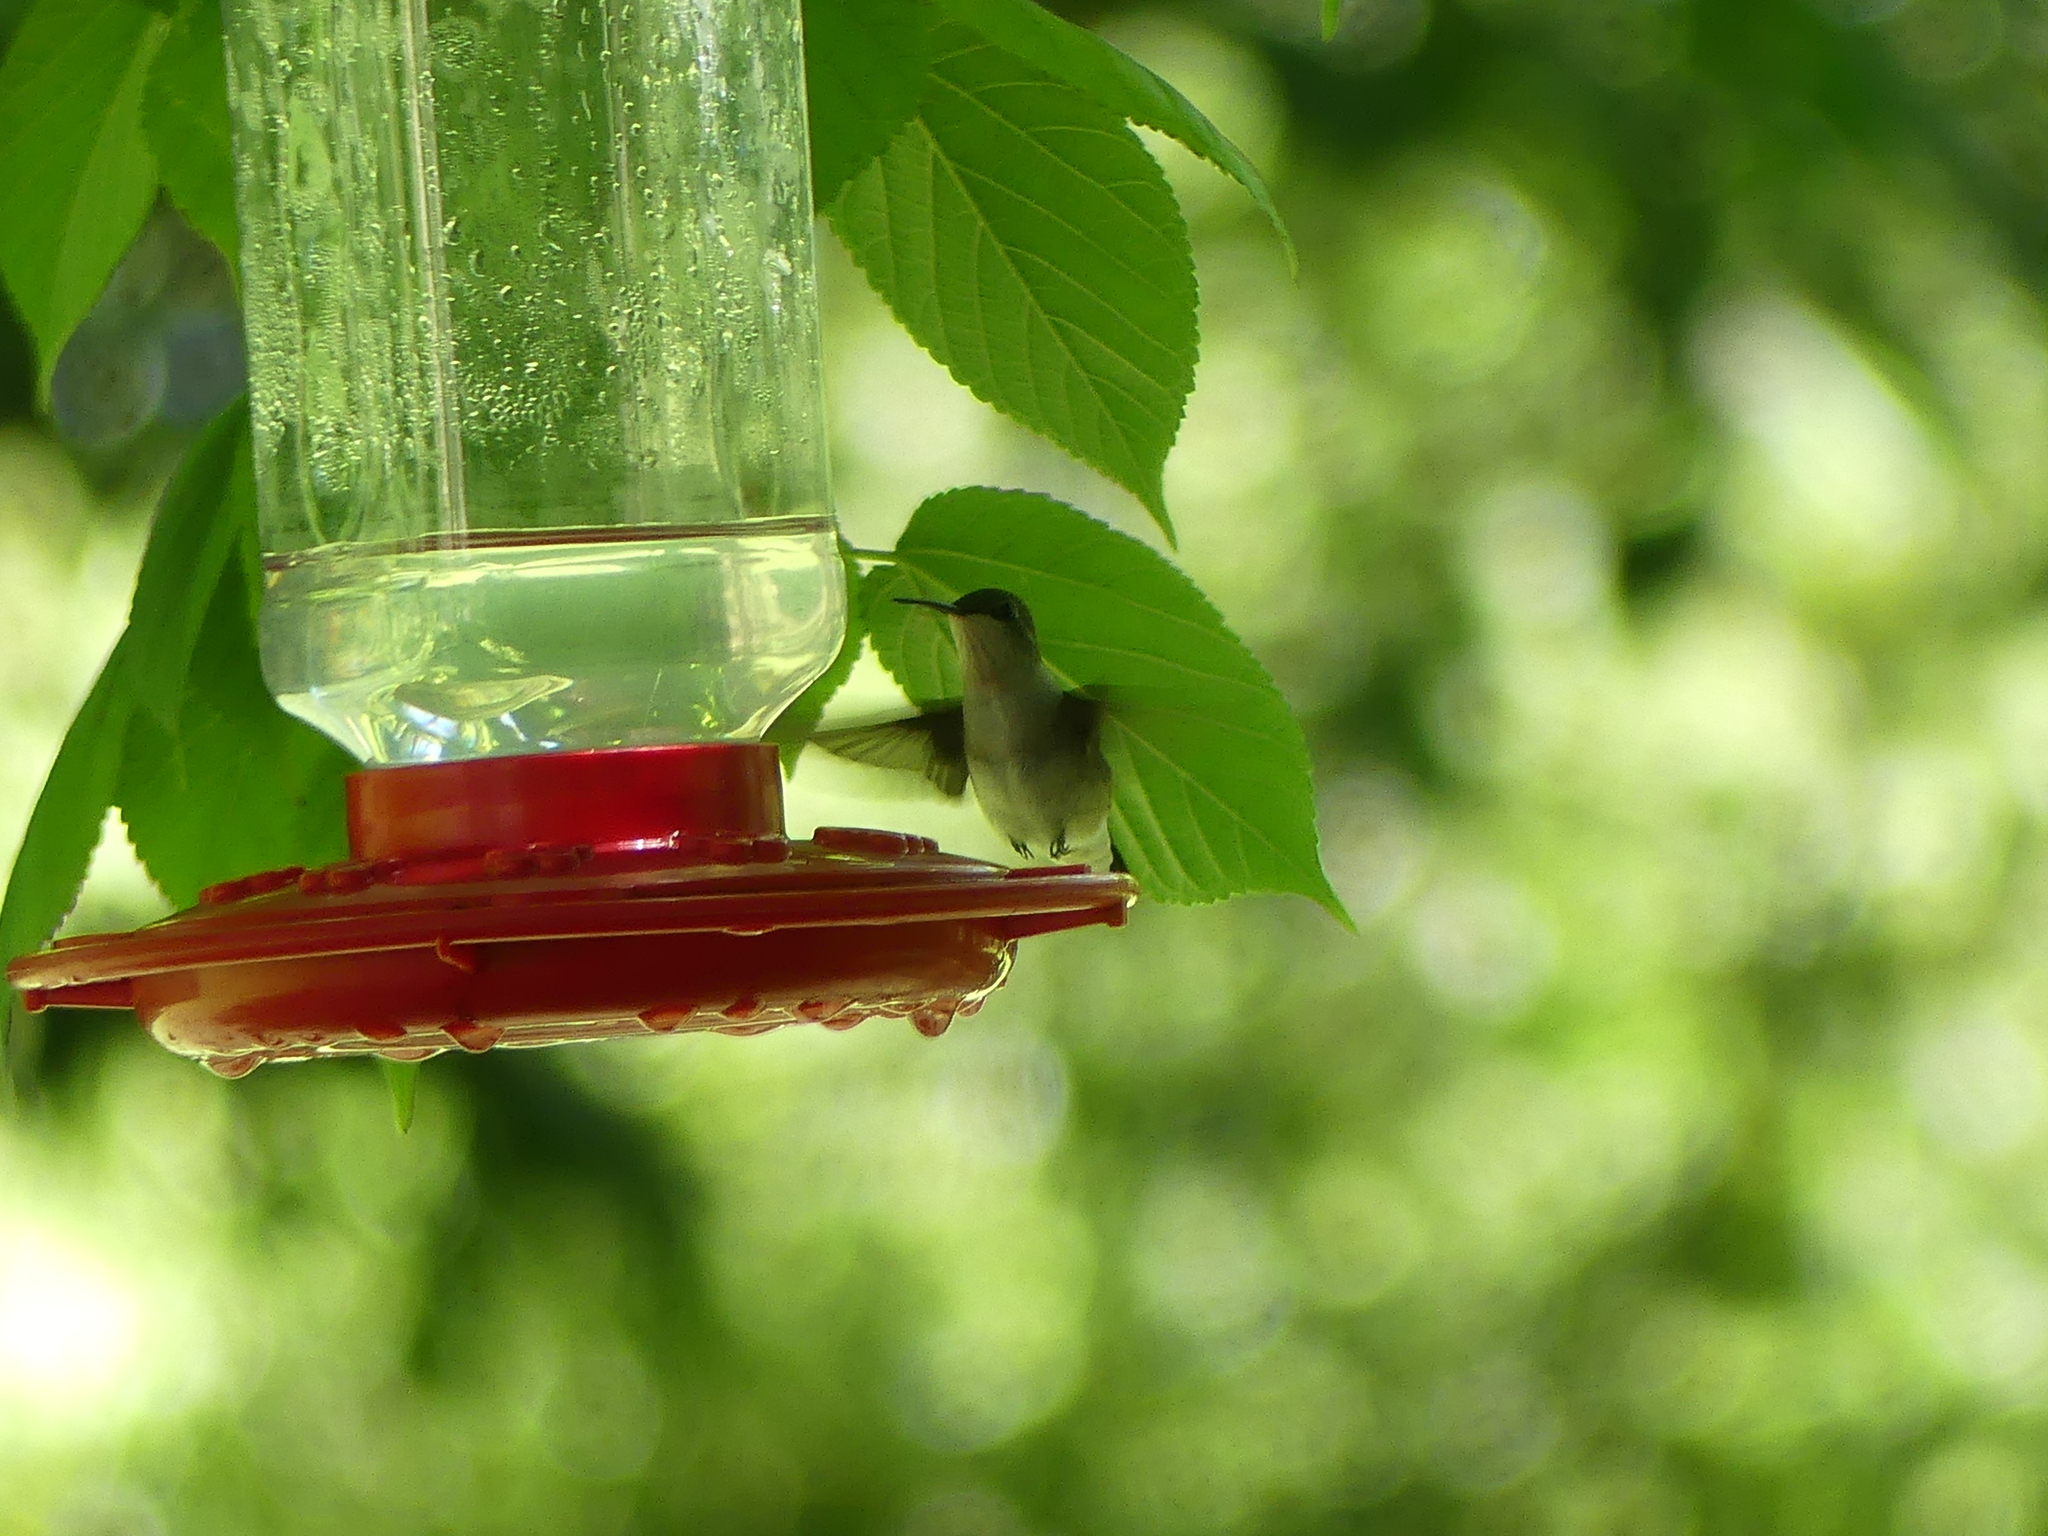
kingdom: Animalia
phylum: Chordata
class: Aves
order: Apodiformes
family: Trochilidae
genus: Archilochus
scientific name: Archilochus colubris
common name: Ruby-throated hummingbird
